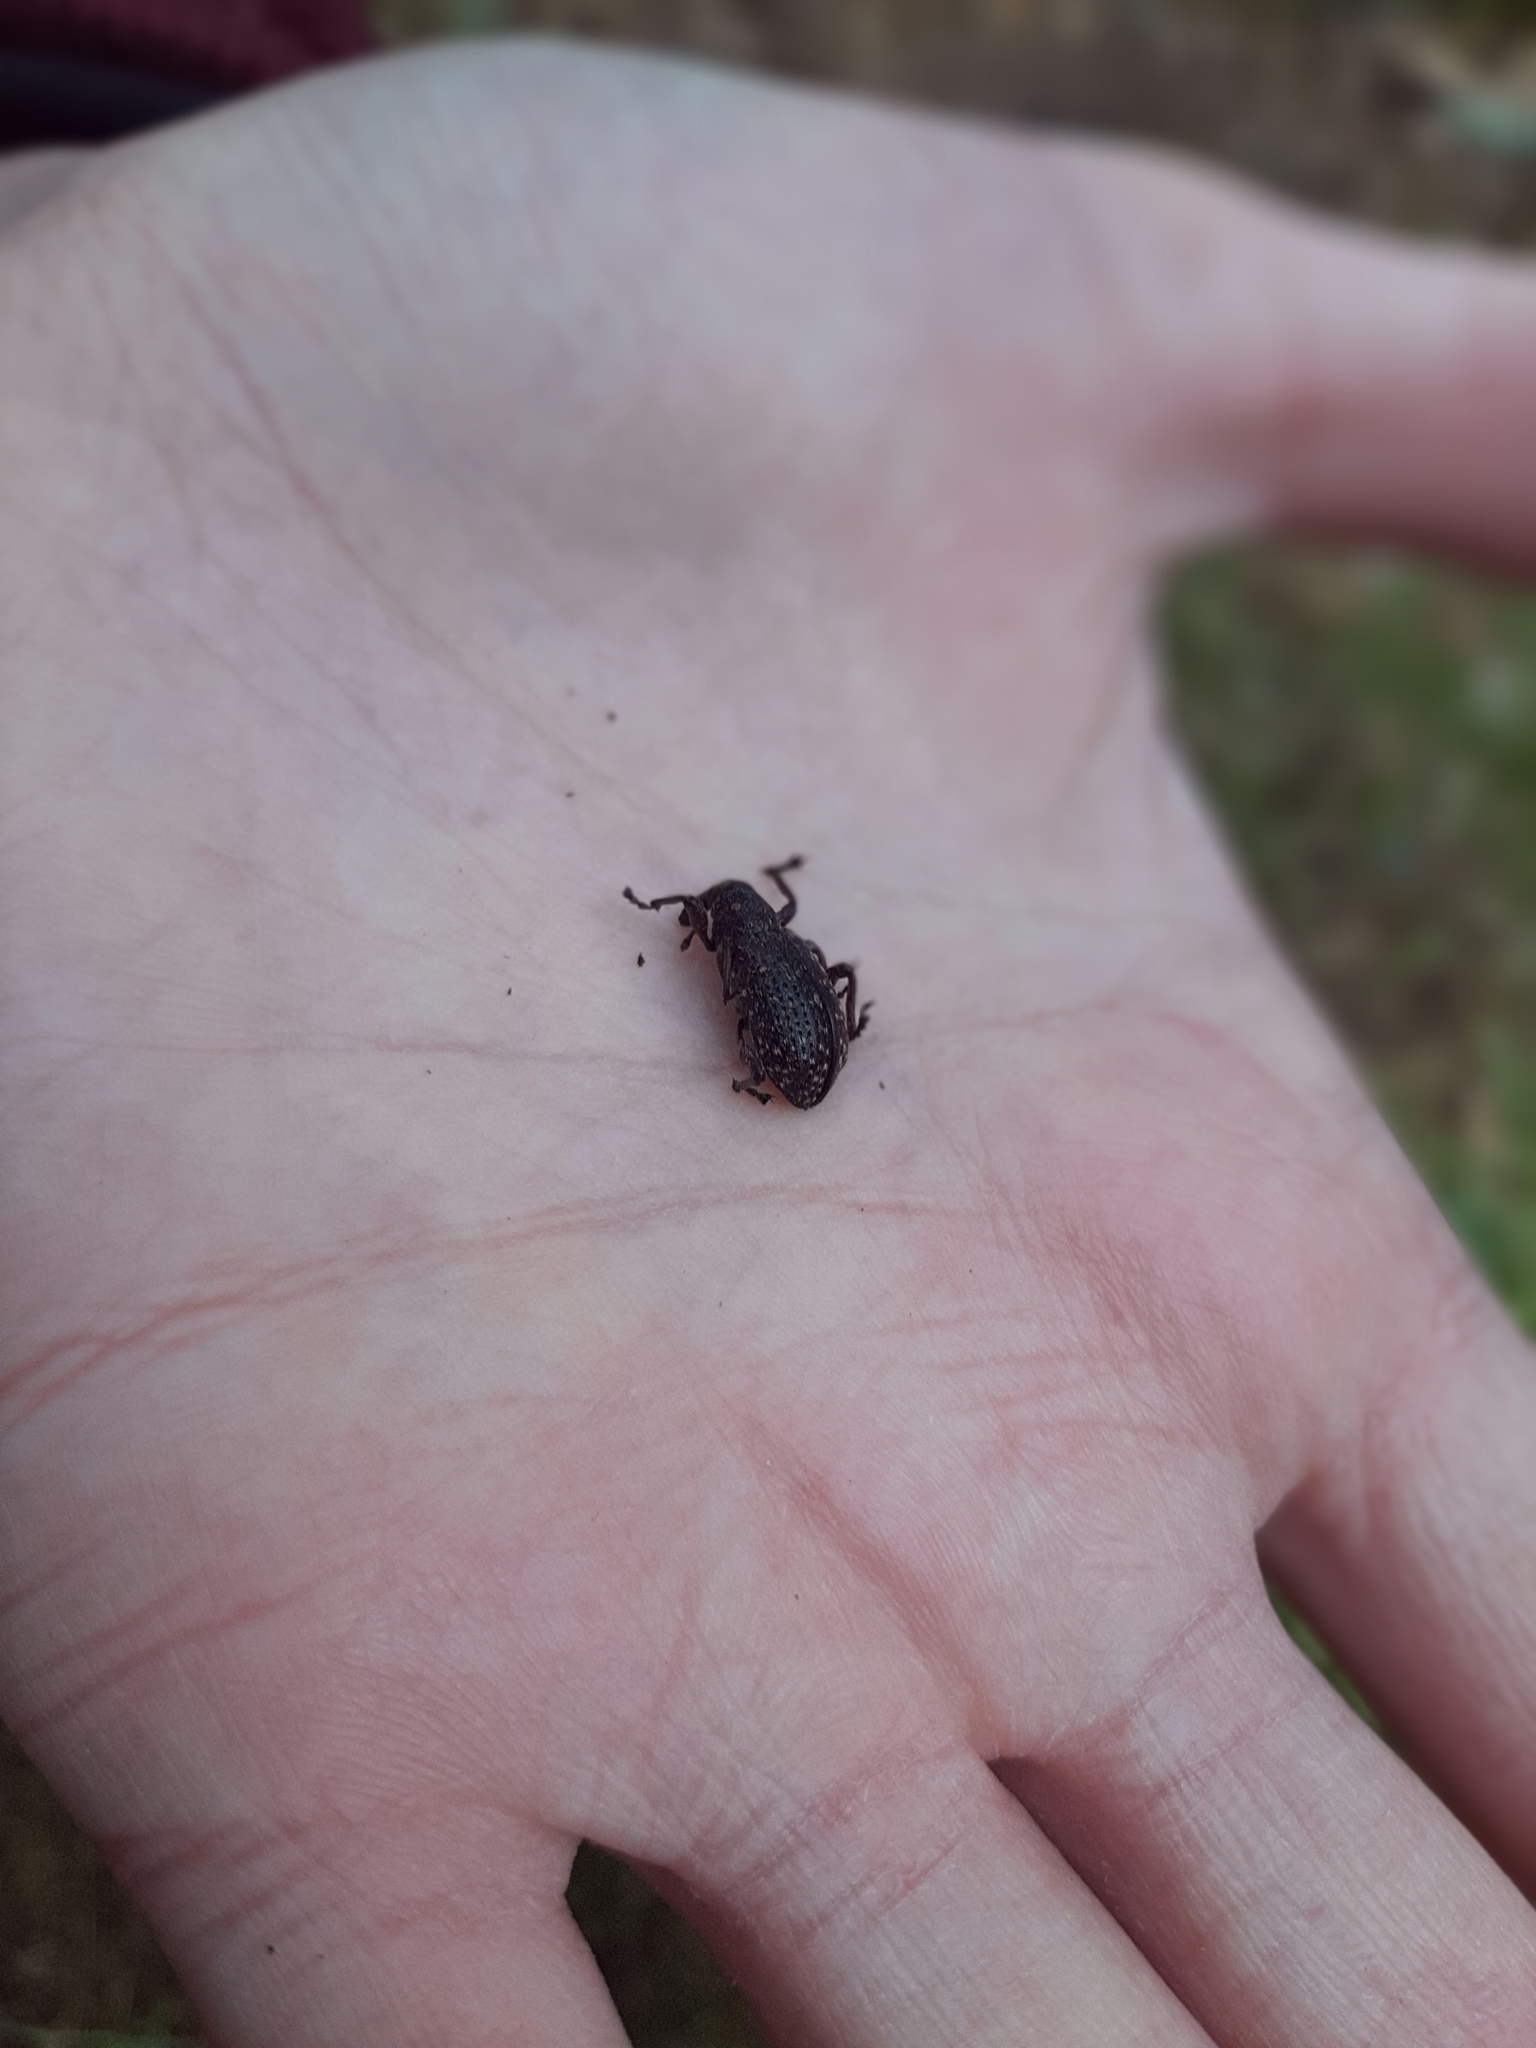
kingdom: Animalia
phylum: Arthropoda
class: Insecta
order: Coleoptera
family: Curculionidae
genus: Hylobius
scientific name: Hylobius excavatus
